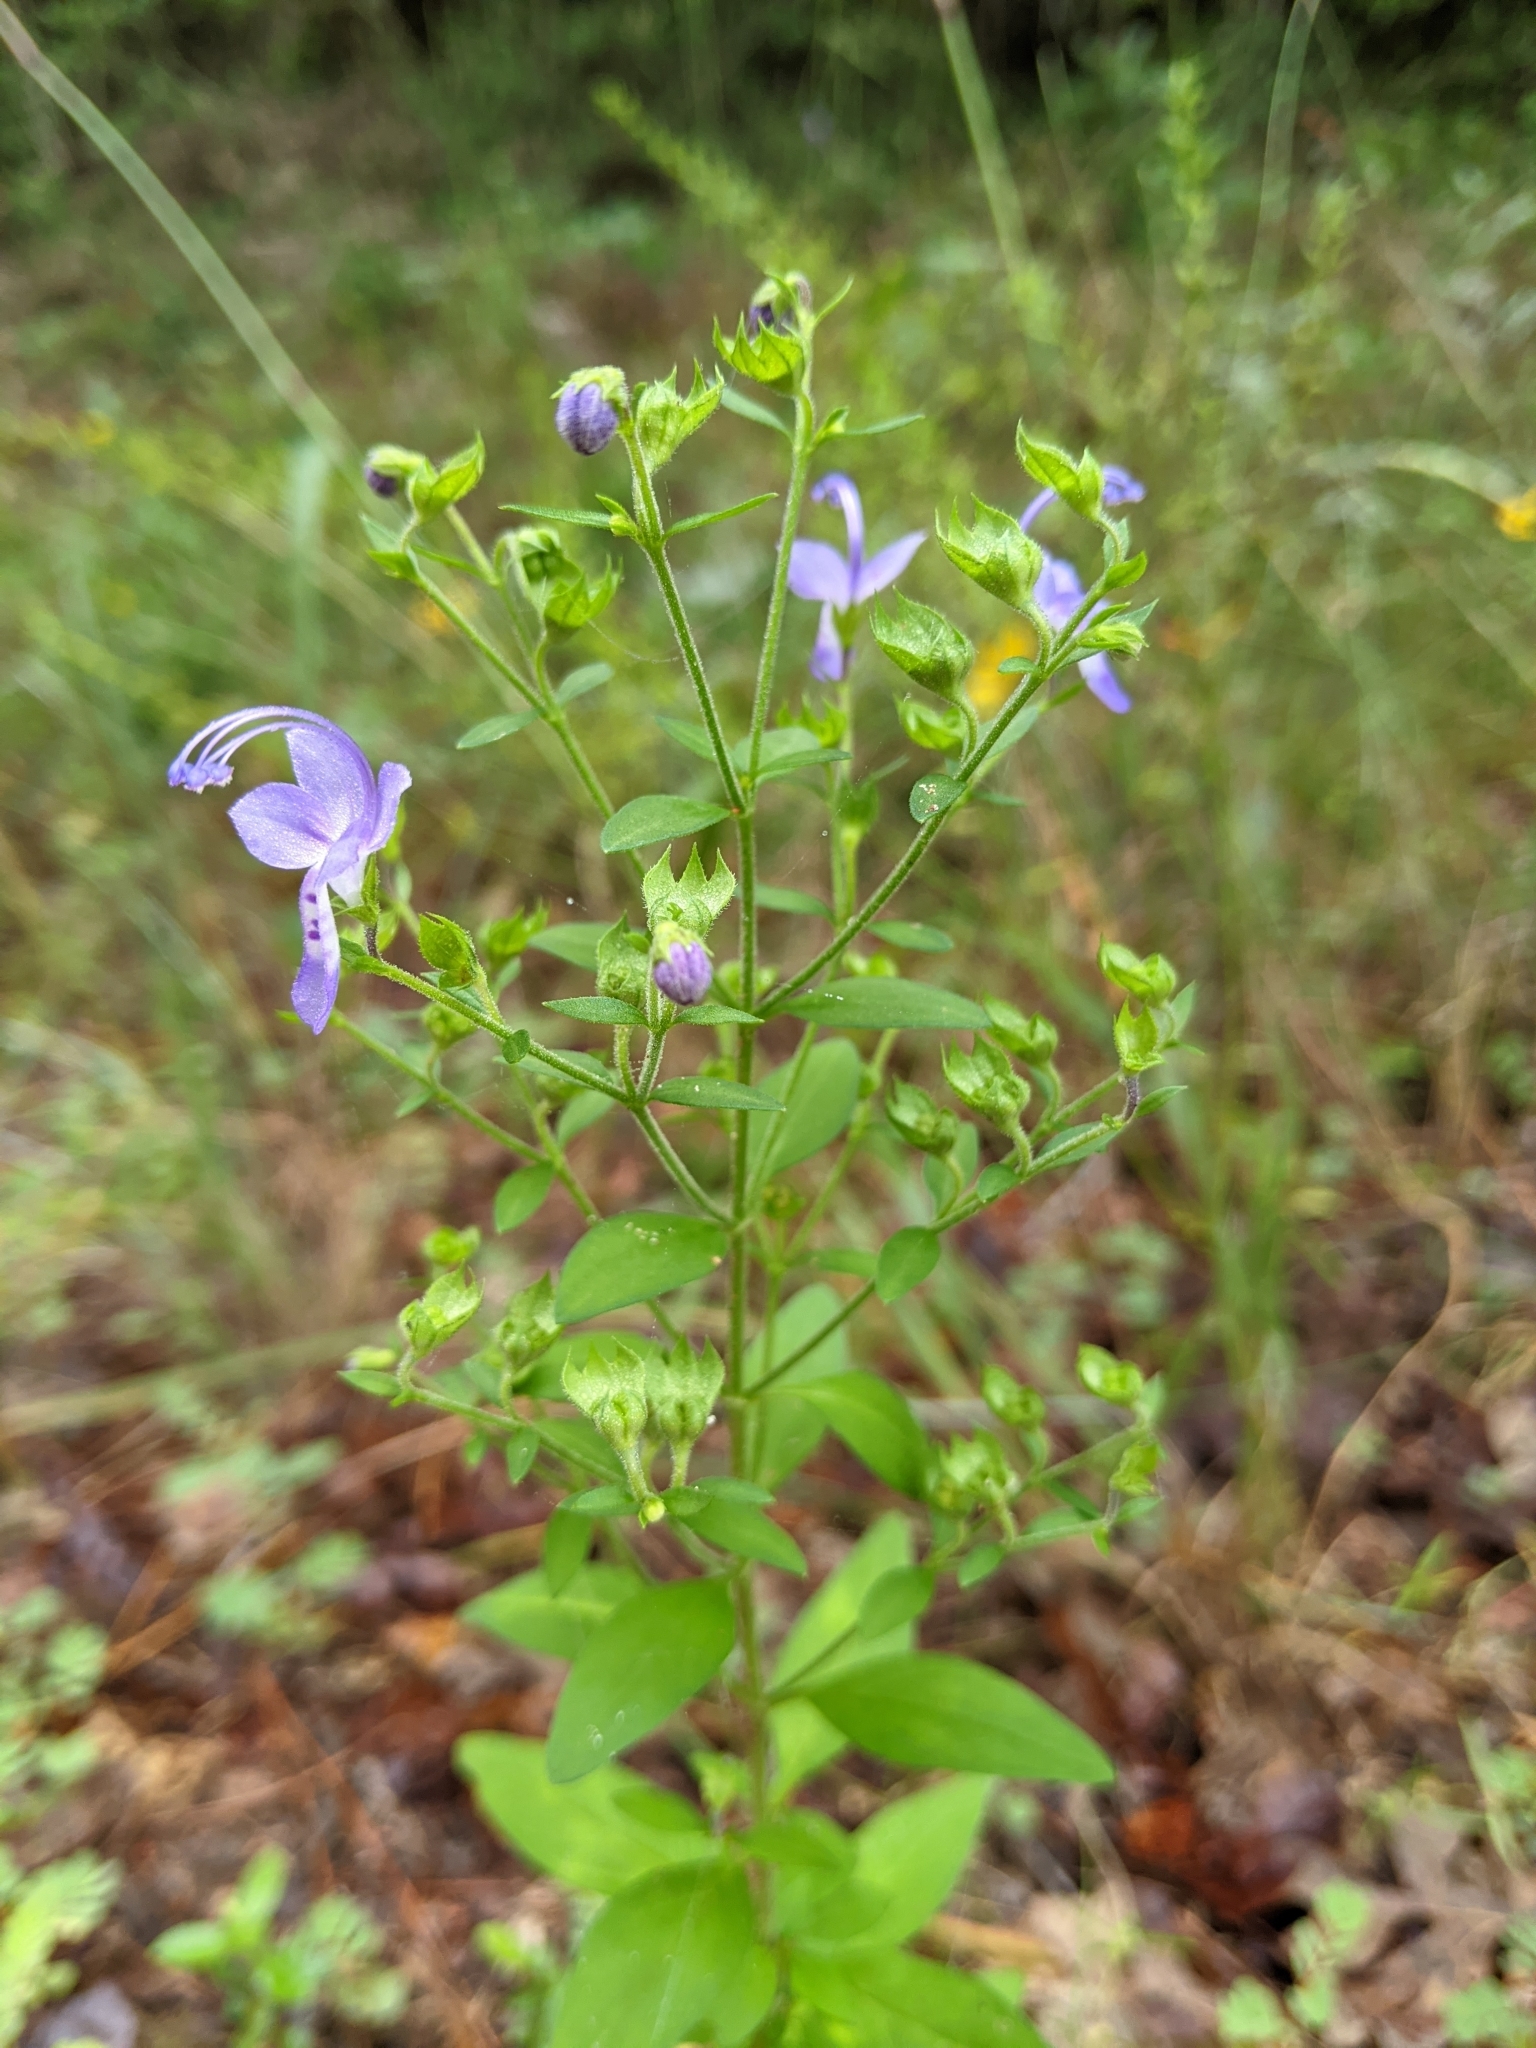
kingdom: Plantae
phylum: Tracheophyta
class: Magnoliopsida
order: Lamiales
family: Lamiaceae
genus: Trichostema
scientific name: Trichostema dichotomum
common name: Bastard pennyroyal
